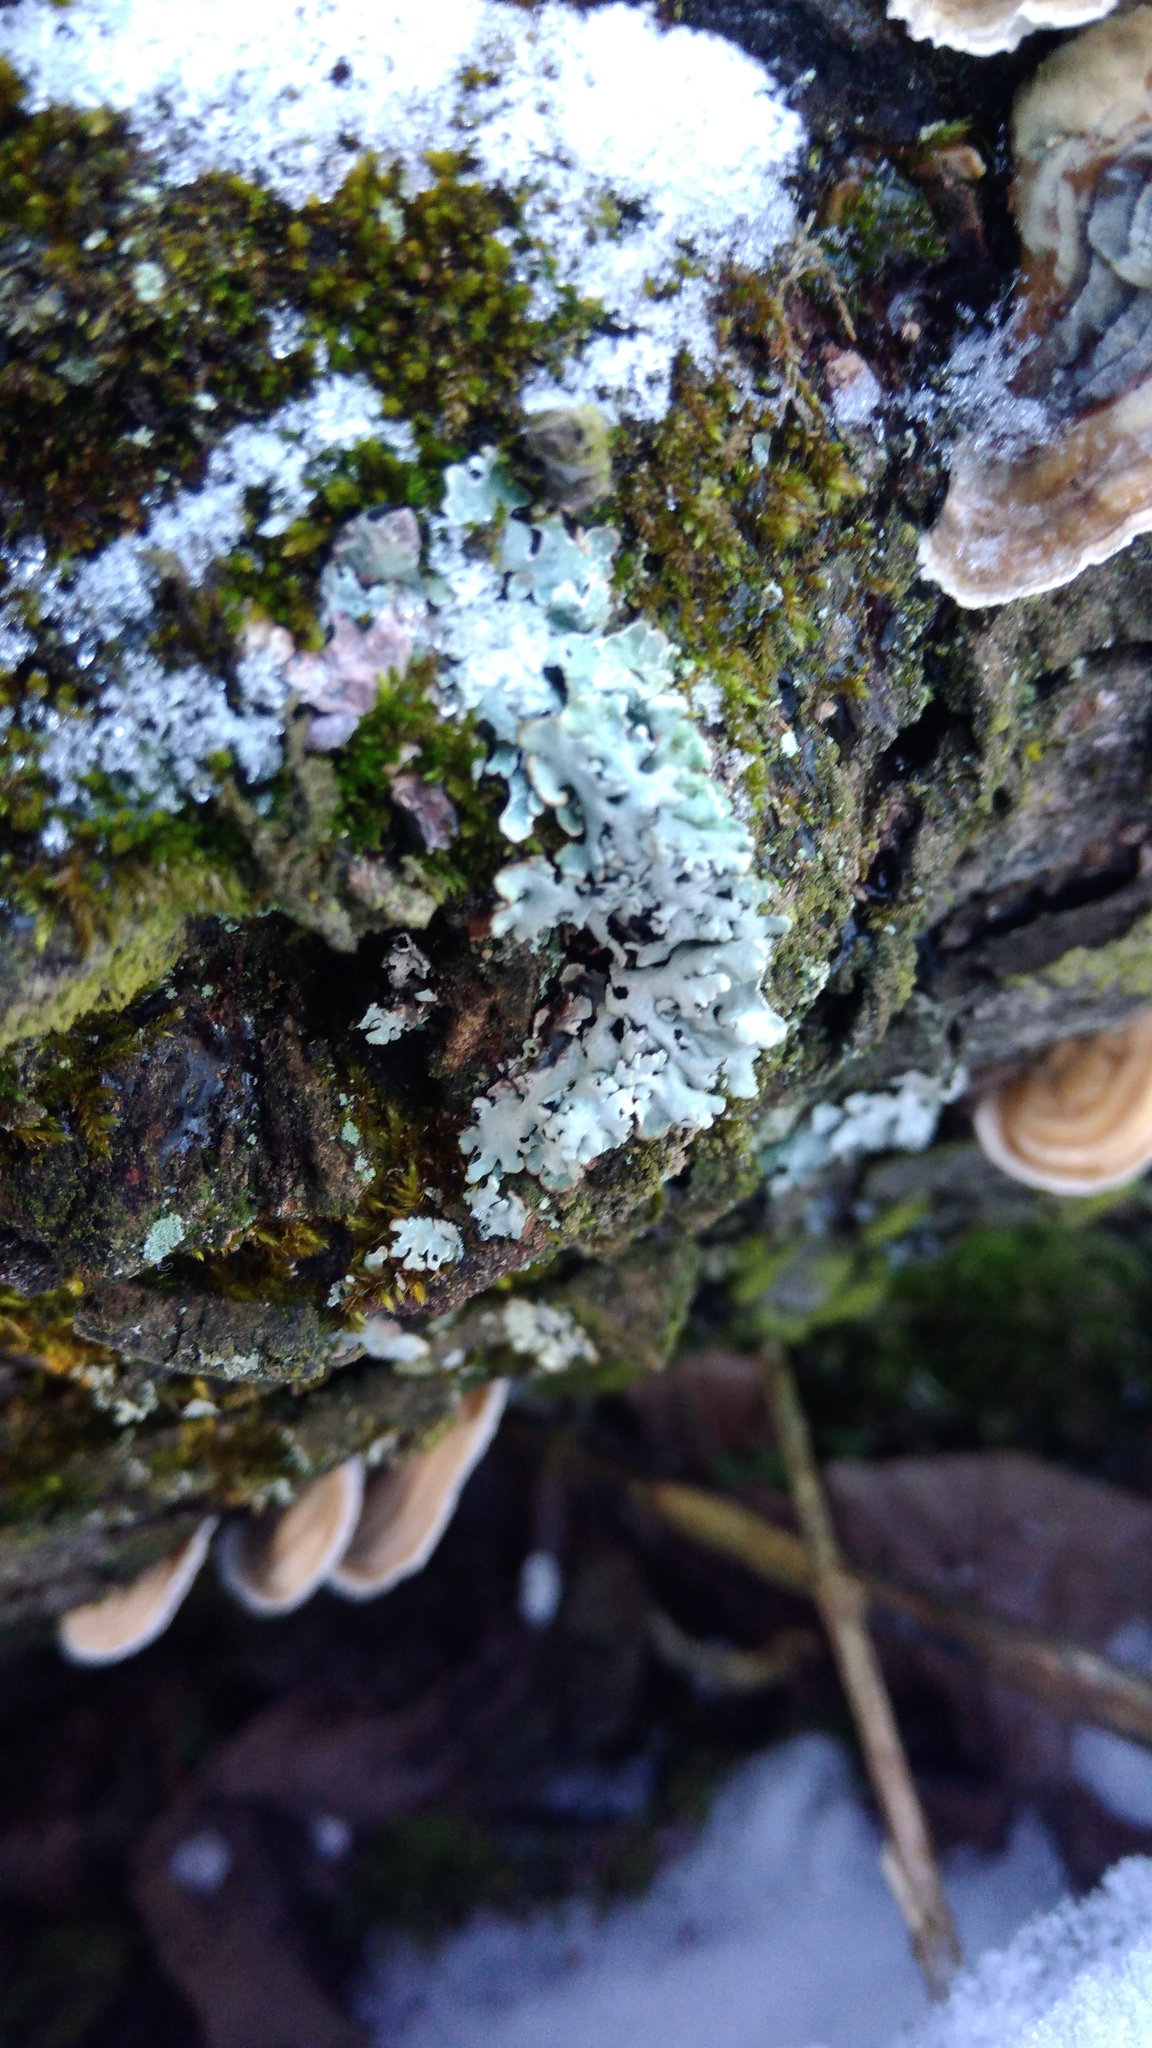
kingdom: Fungi
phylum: Ascomycota
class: Lecanoromycetes
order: Lecanorales
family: Parmeliaceae
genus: Hypogymnia
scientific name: Hypogymnia physodes
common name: Dark crottle
